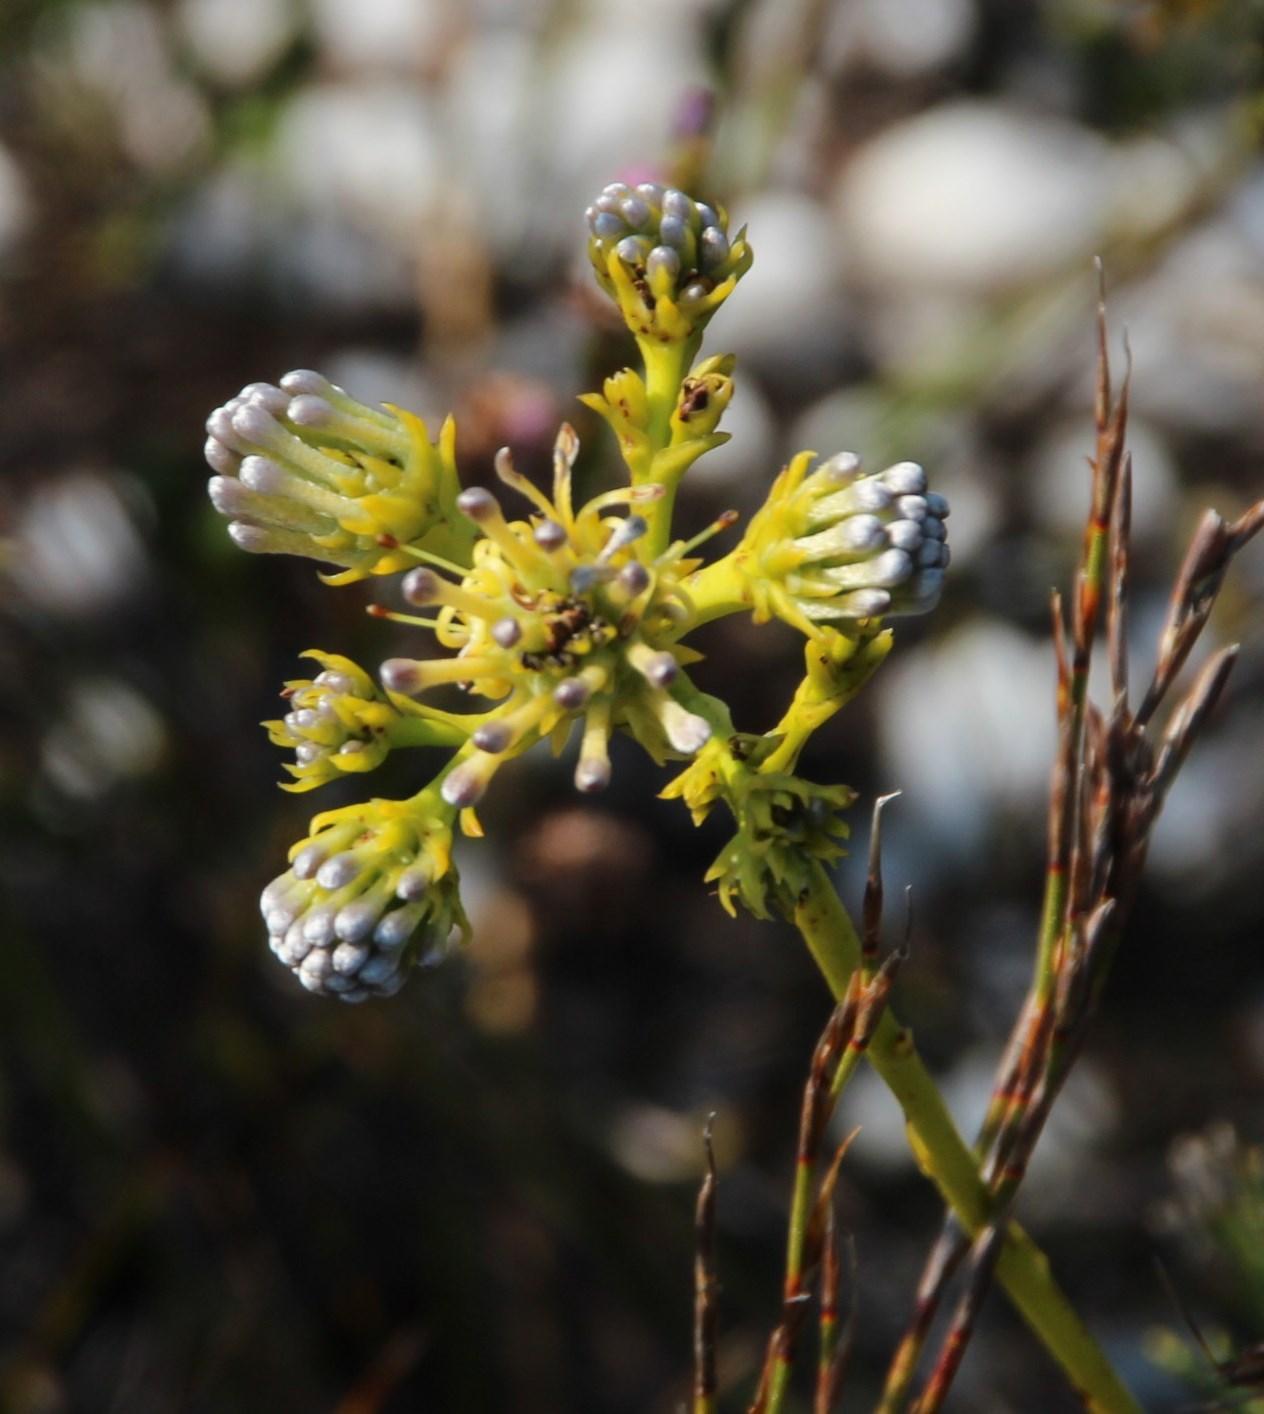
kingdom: Plantae
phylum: Tracheophyta
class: Magnoliopsida
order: Proteales
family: Proteaceae
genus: Serruria
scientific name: Serruria elongata
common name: Long-stalk spiderhead
